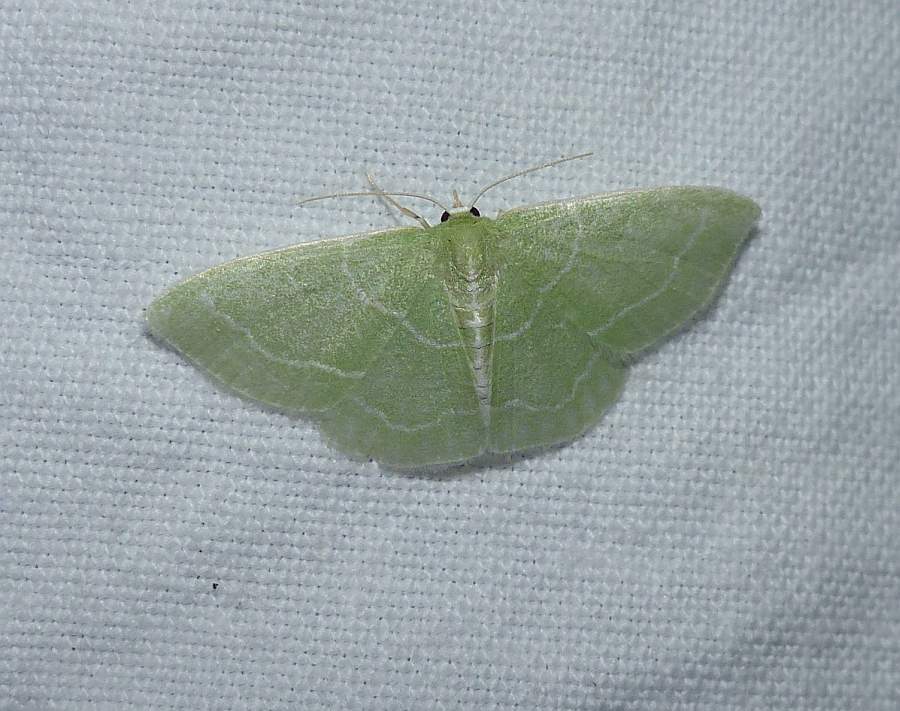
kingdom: Animalia
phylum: Arthropoda
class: Insecta
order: Lepidoptera
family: Geometridae
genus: Synchlora
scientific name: Synchlora aerata
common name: Wavy-lined emerald
